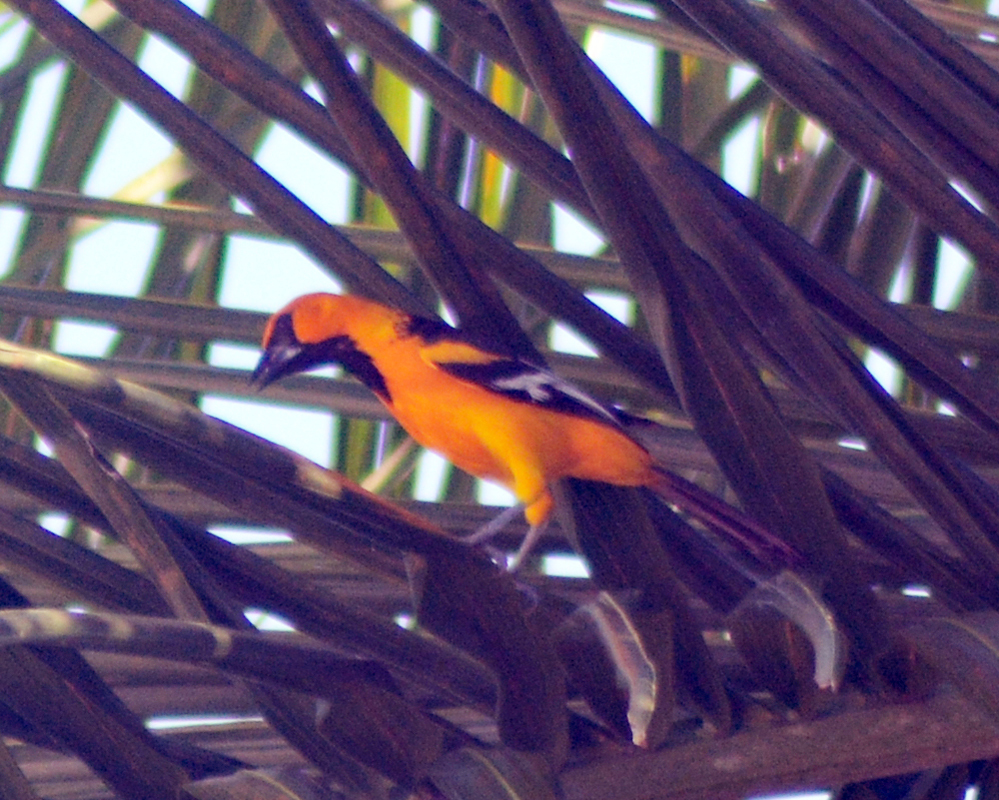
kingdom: Animalia
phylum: Chordata
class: Aves
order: Passeriformes
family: Icteridae
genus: Icterus
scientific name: Icterus gularis
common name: Altamira oriole
